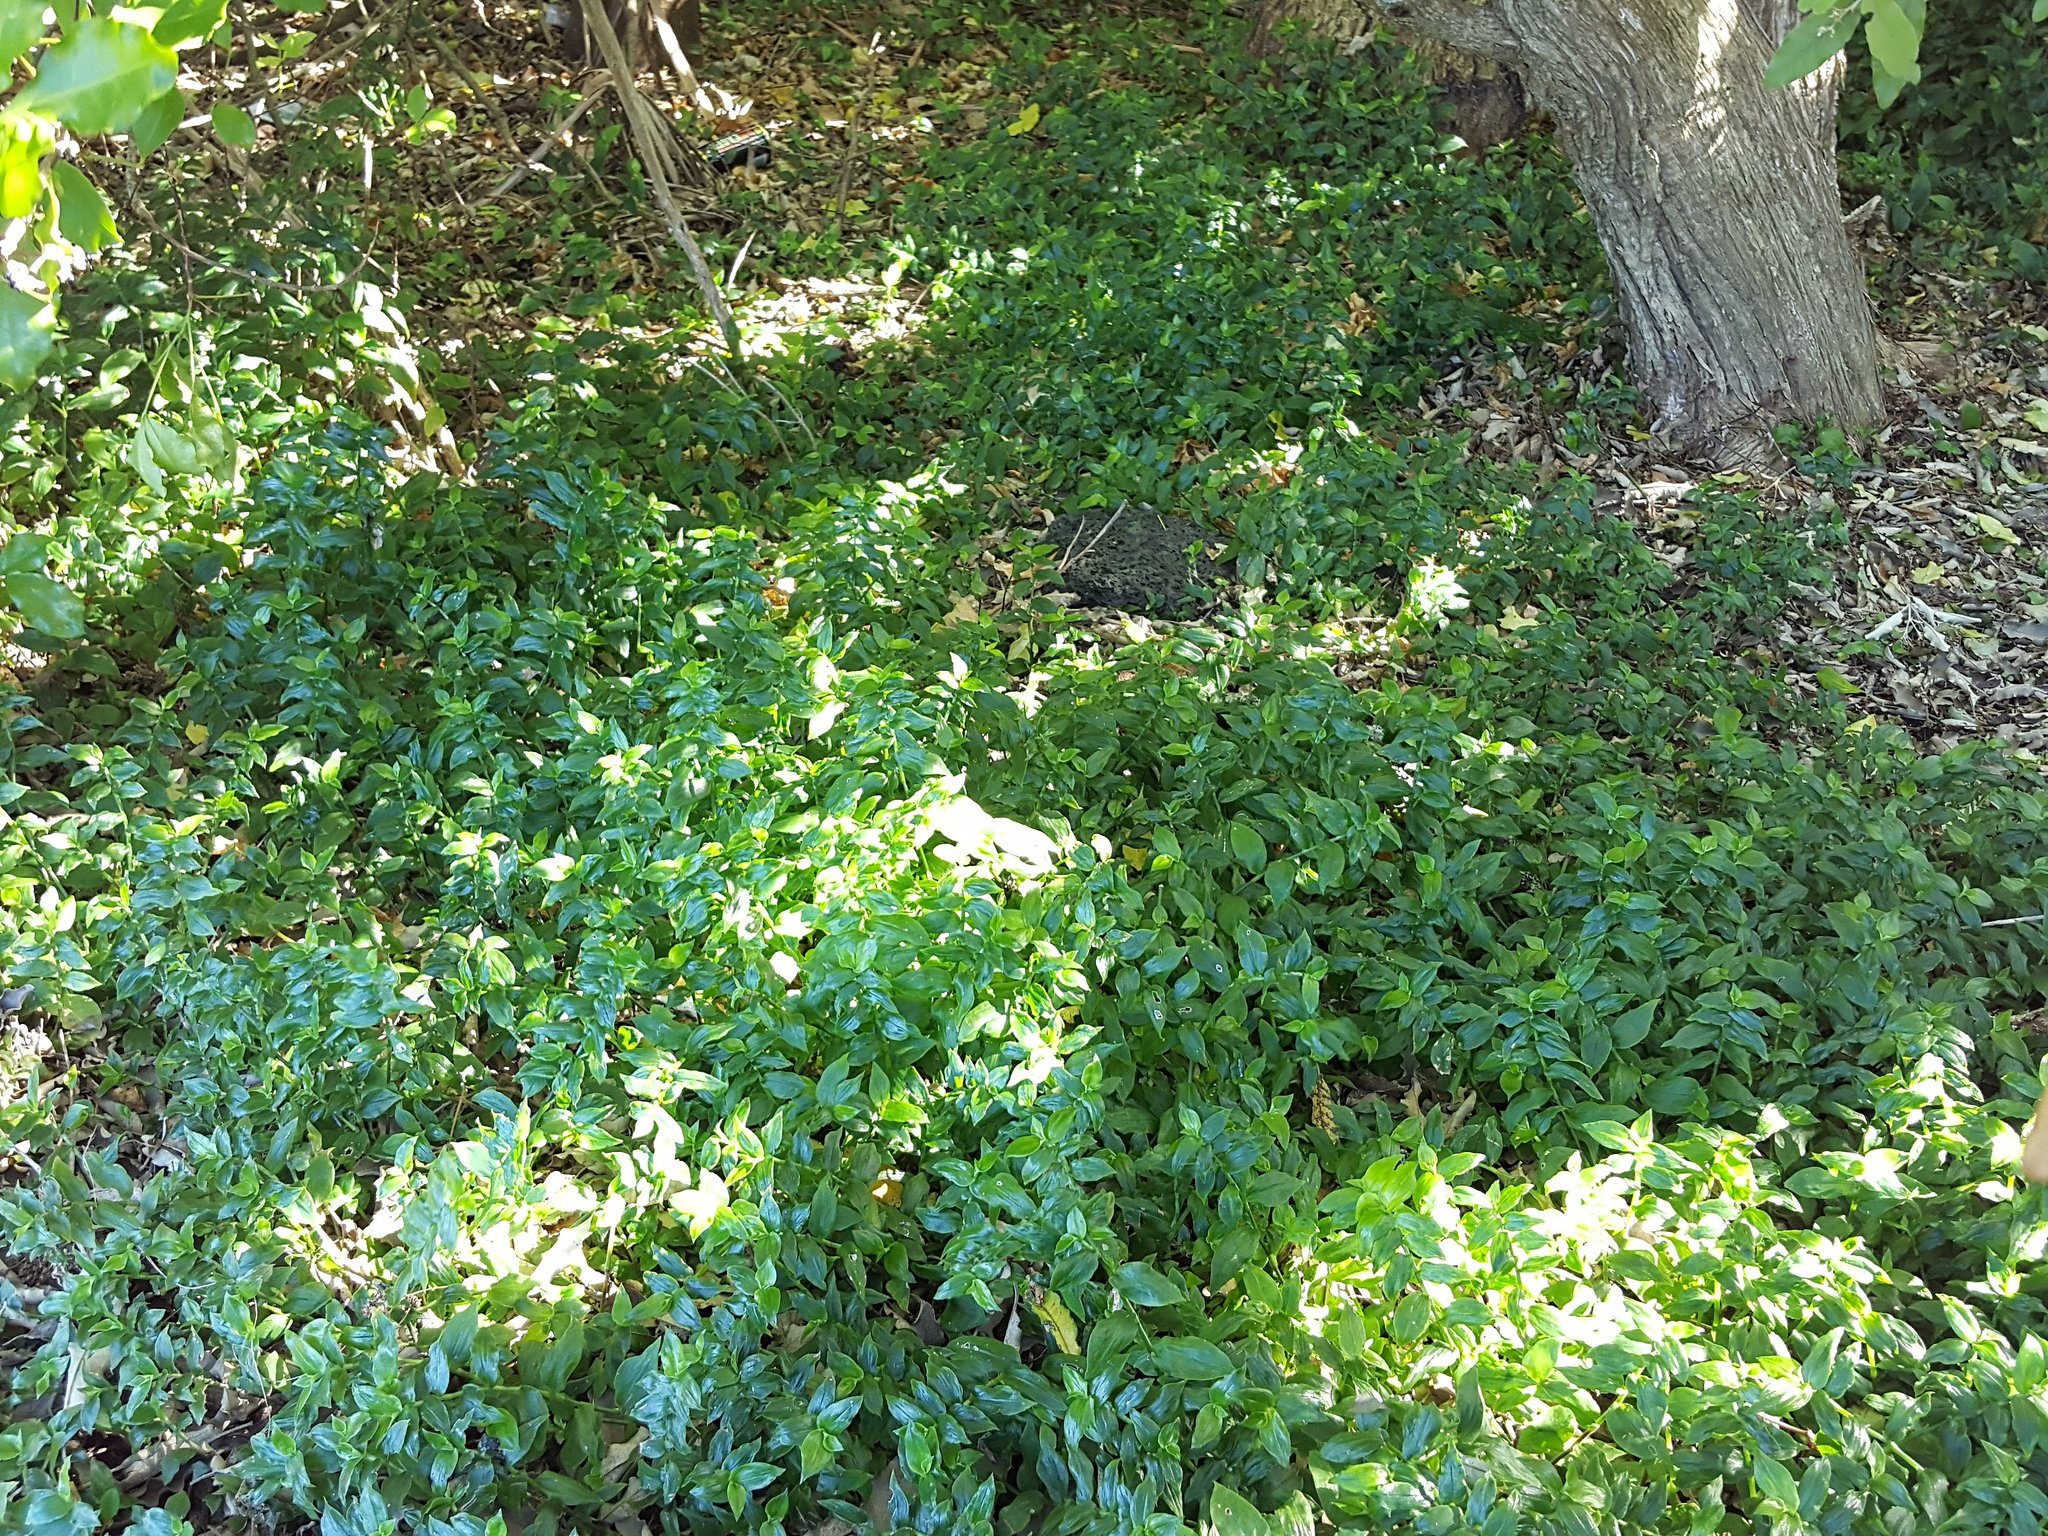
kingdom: Plantae
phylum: Tracheophyta
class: Liliopsida
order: Commelinales
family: Commelinaceae
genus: Tradescantia
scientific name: Tradescantia fluminensis
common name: Wandering-jew
